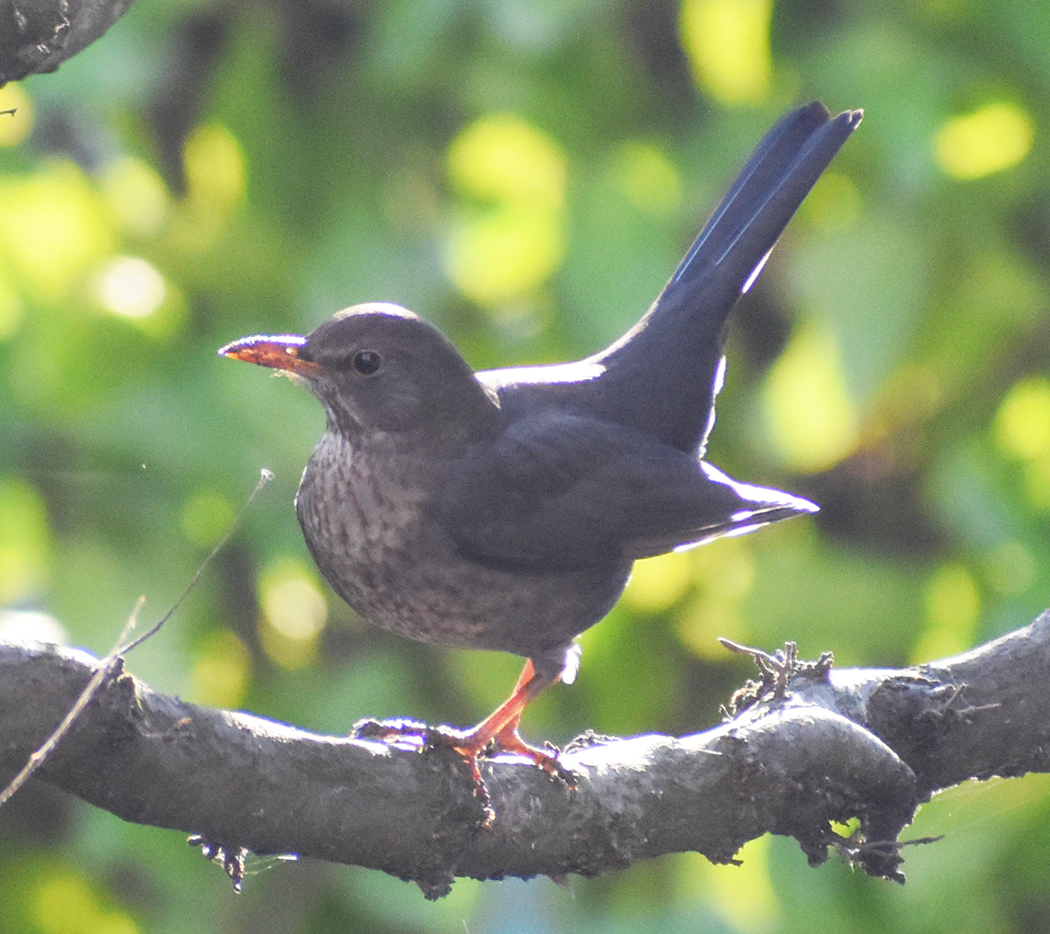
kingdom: Animalia
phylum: Chordata
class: Aves
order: Passeriformes
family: Turdidae
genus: Turdus
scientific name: Turdus merula
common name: Common blackbird
